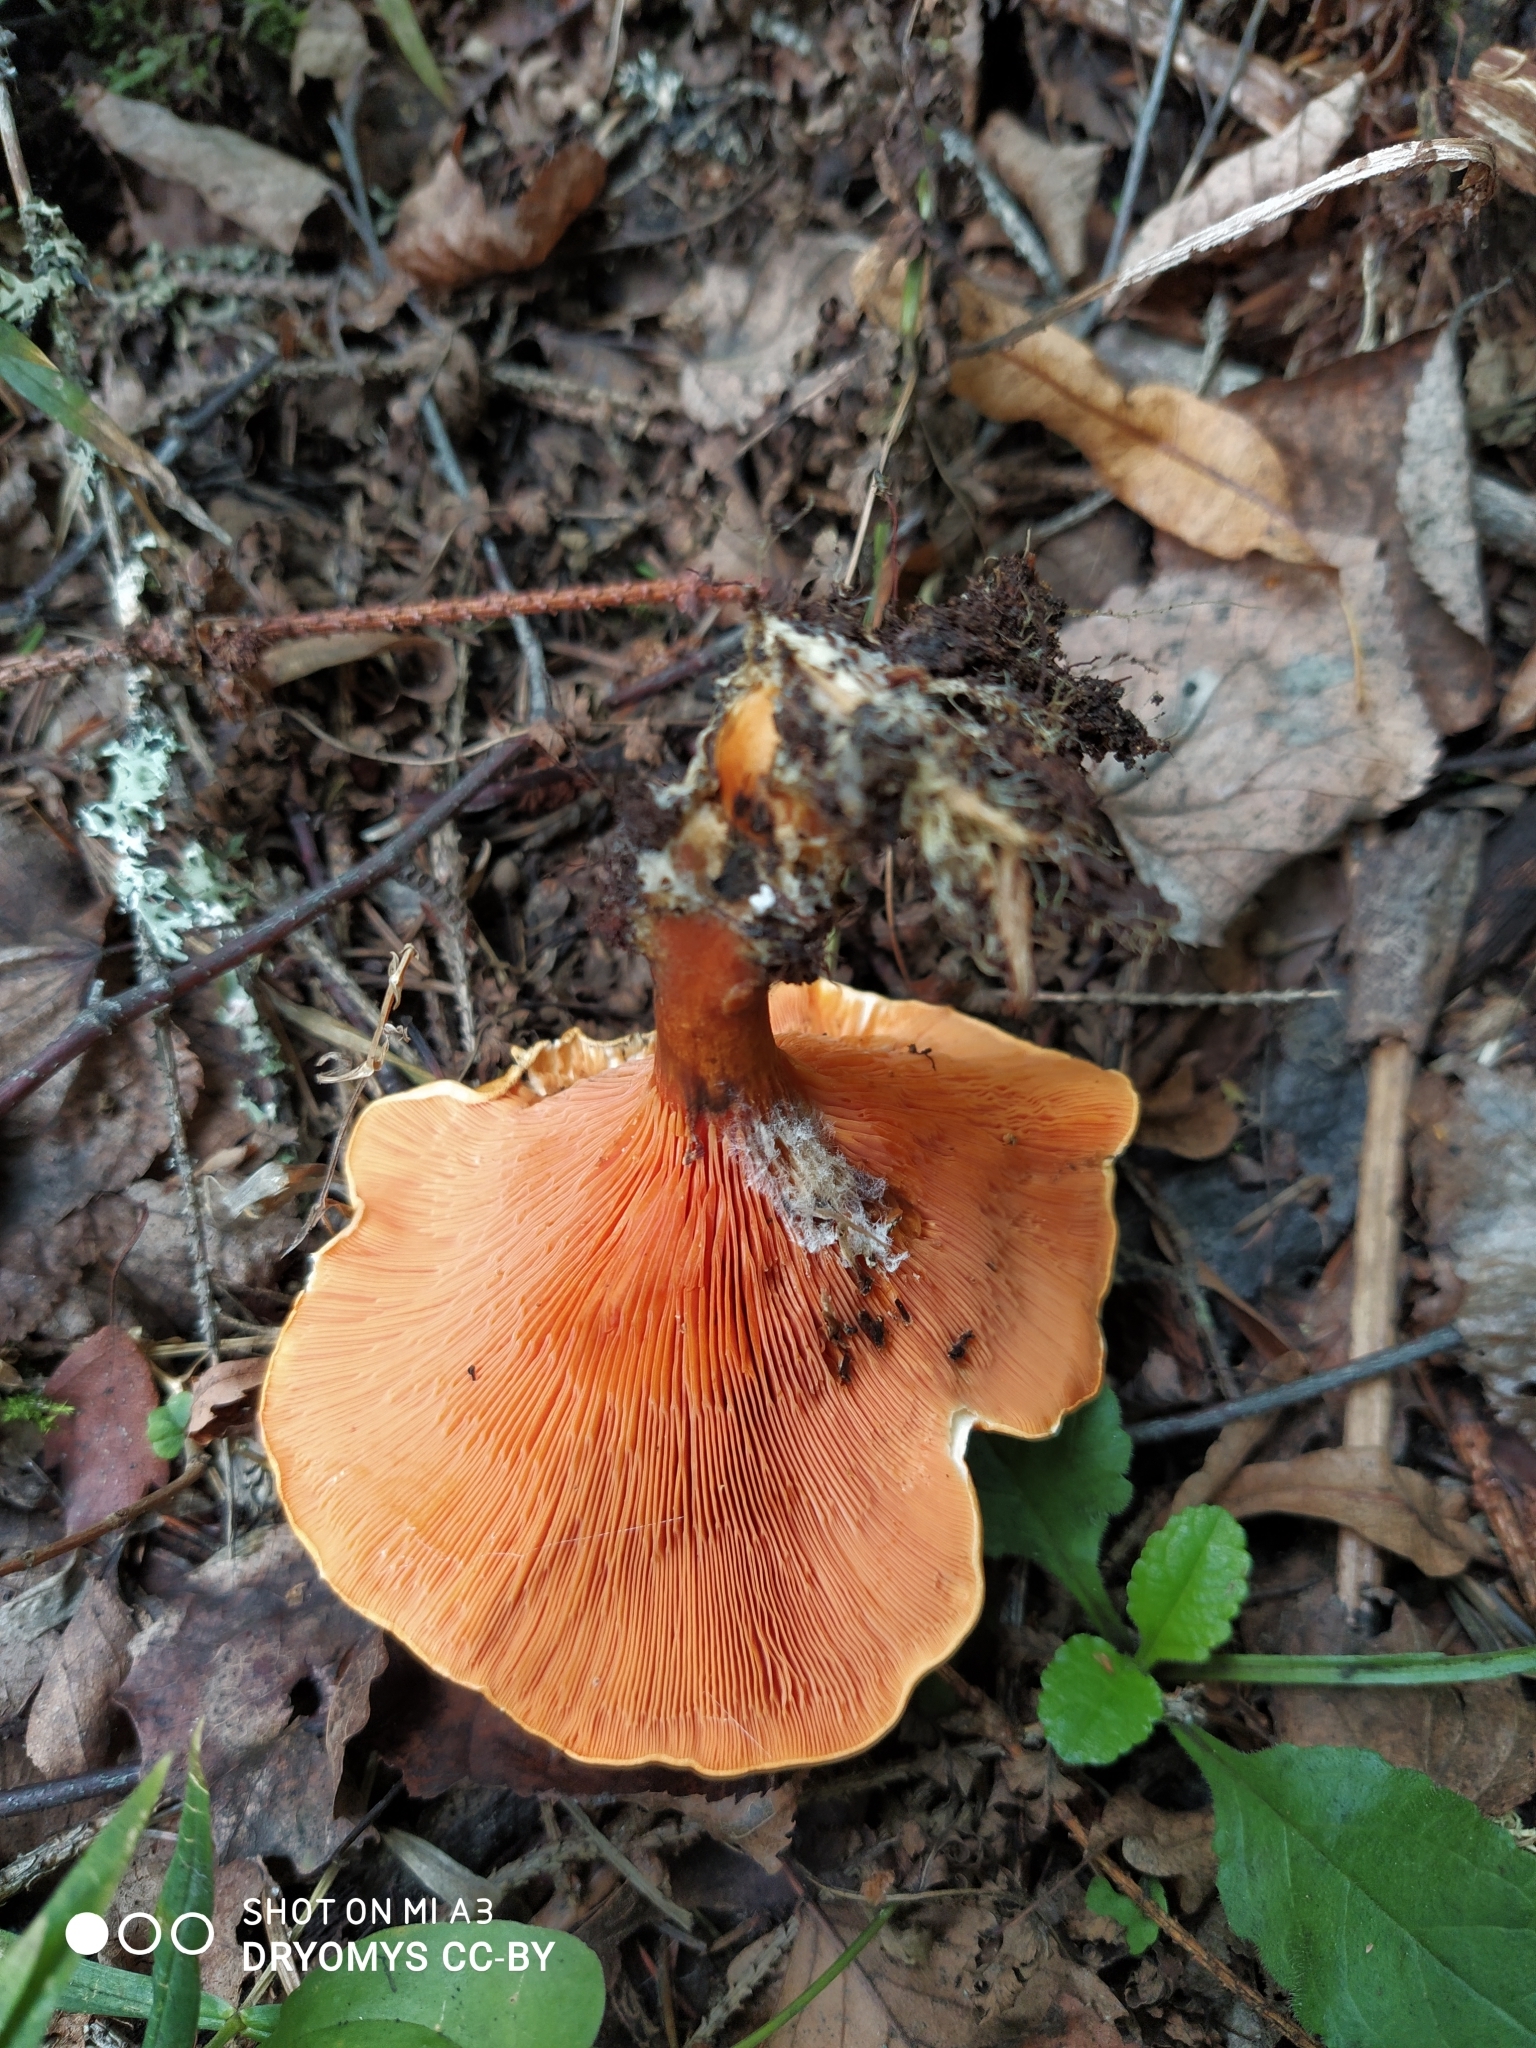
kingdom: Fungi
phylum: Basidiomycota
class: Agaricomycetes
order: Boletales
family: Hygrophoropsidaceae
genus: Hygrophoropsis
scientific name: Hygrophoropsis aurantiaca
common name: False chanterelle
